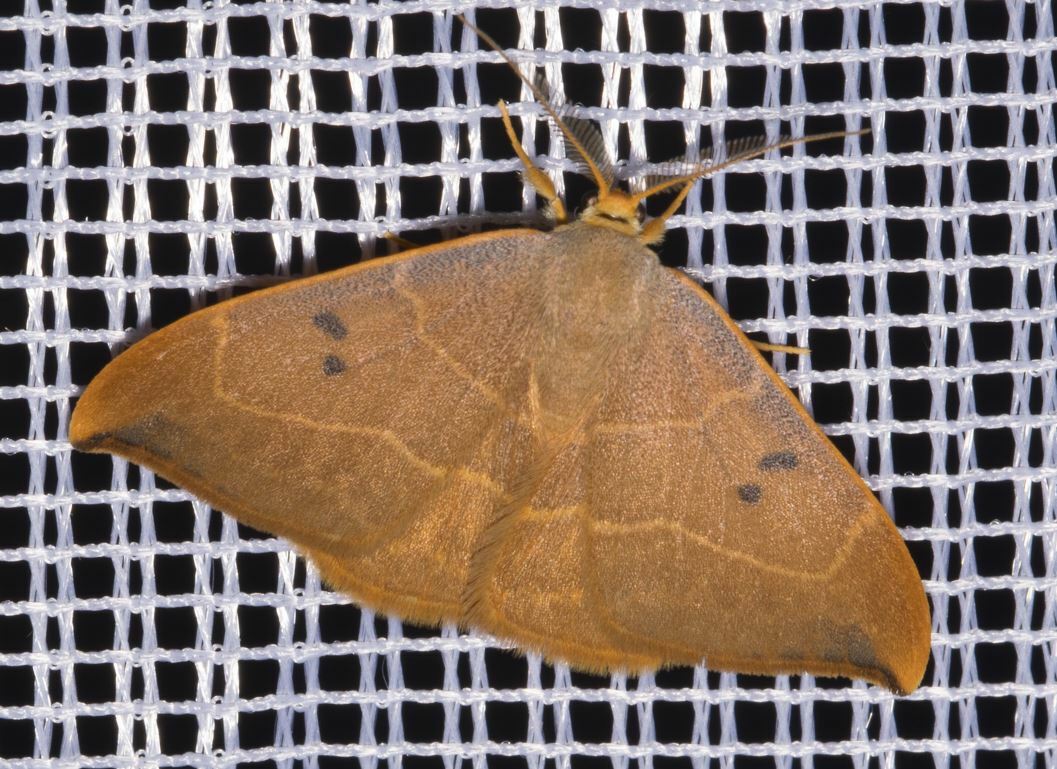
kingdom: Animalia
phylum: Arthropoda
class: Insecta
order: Lepidoptera
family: Drepanidae
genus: Watsonalla
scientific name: Watsonalla binaria
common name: Oak hook-tip
